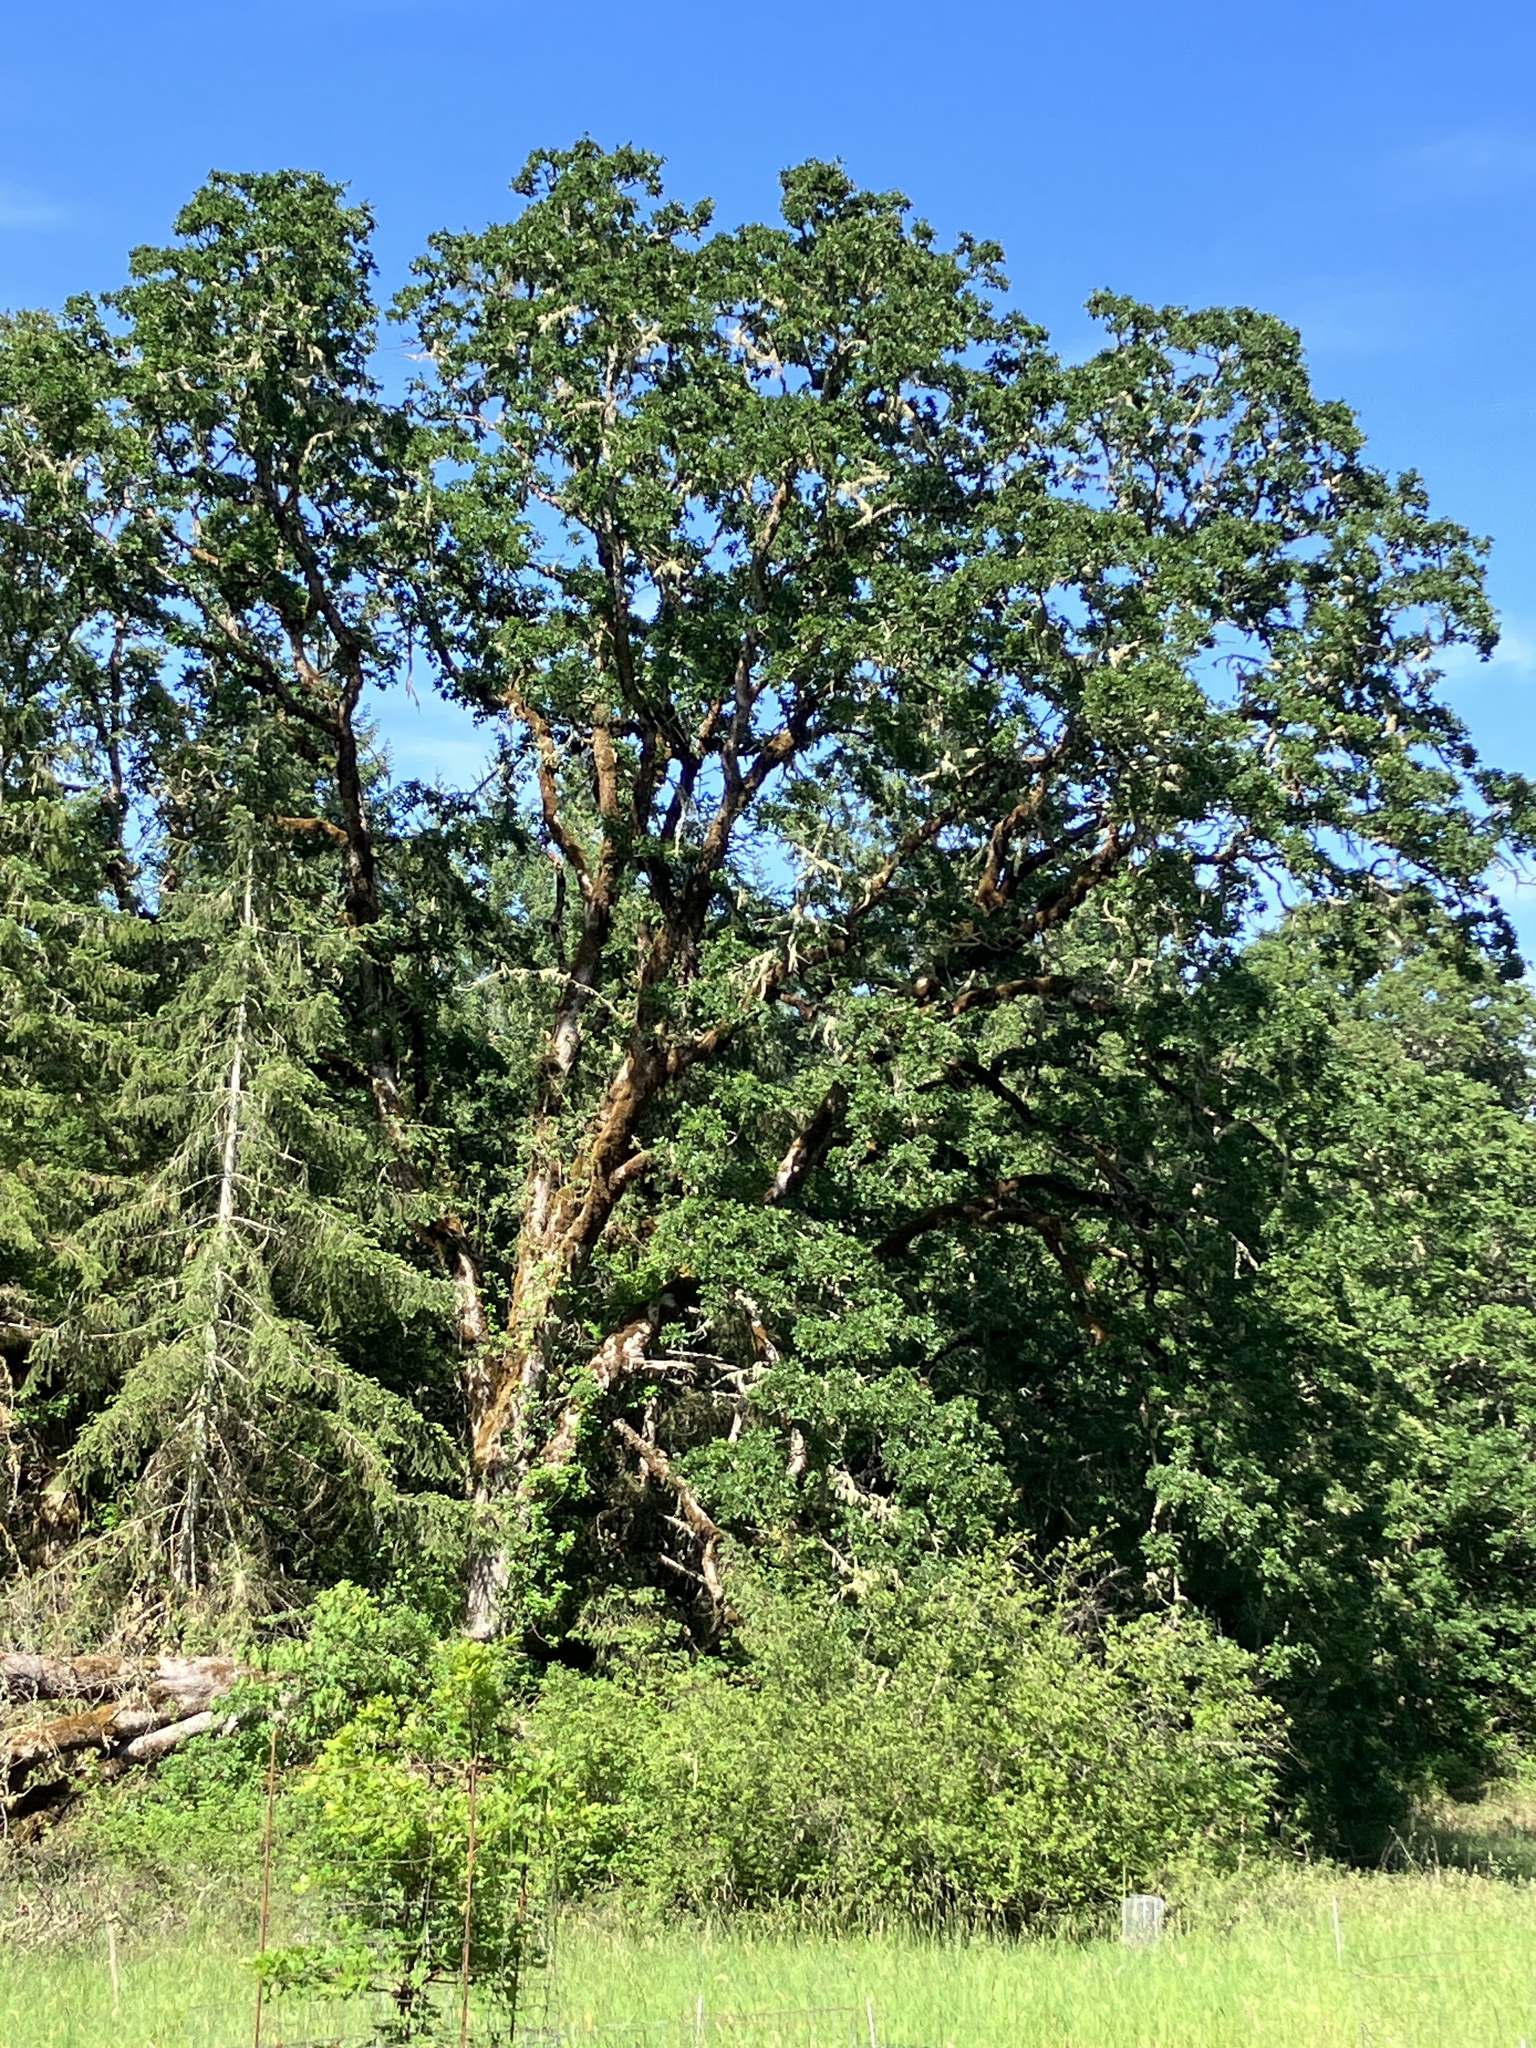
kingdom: Plantae
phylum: Tracheophyta
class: Magnoliopsida
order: Fagales
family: Fagaceae
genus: Quercus
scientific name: Quercus garryana
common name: Garry oak
